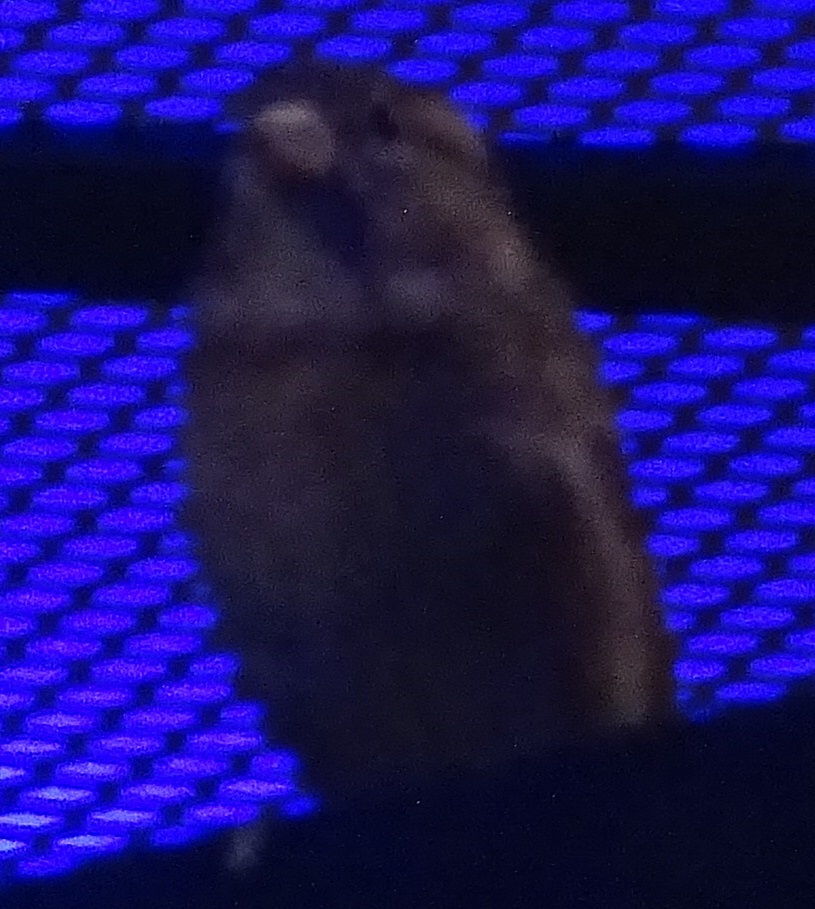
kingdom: Animalia
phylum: Chordata
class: Aves
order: Passeriformes
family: Passeridae
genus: Passer
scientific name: Passer domesticus
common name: House sparrow
